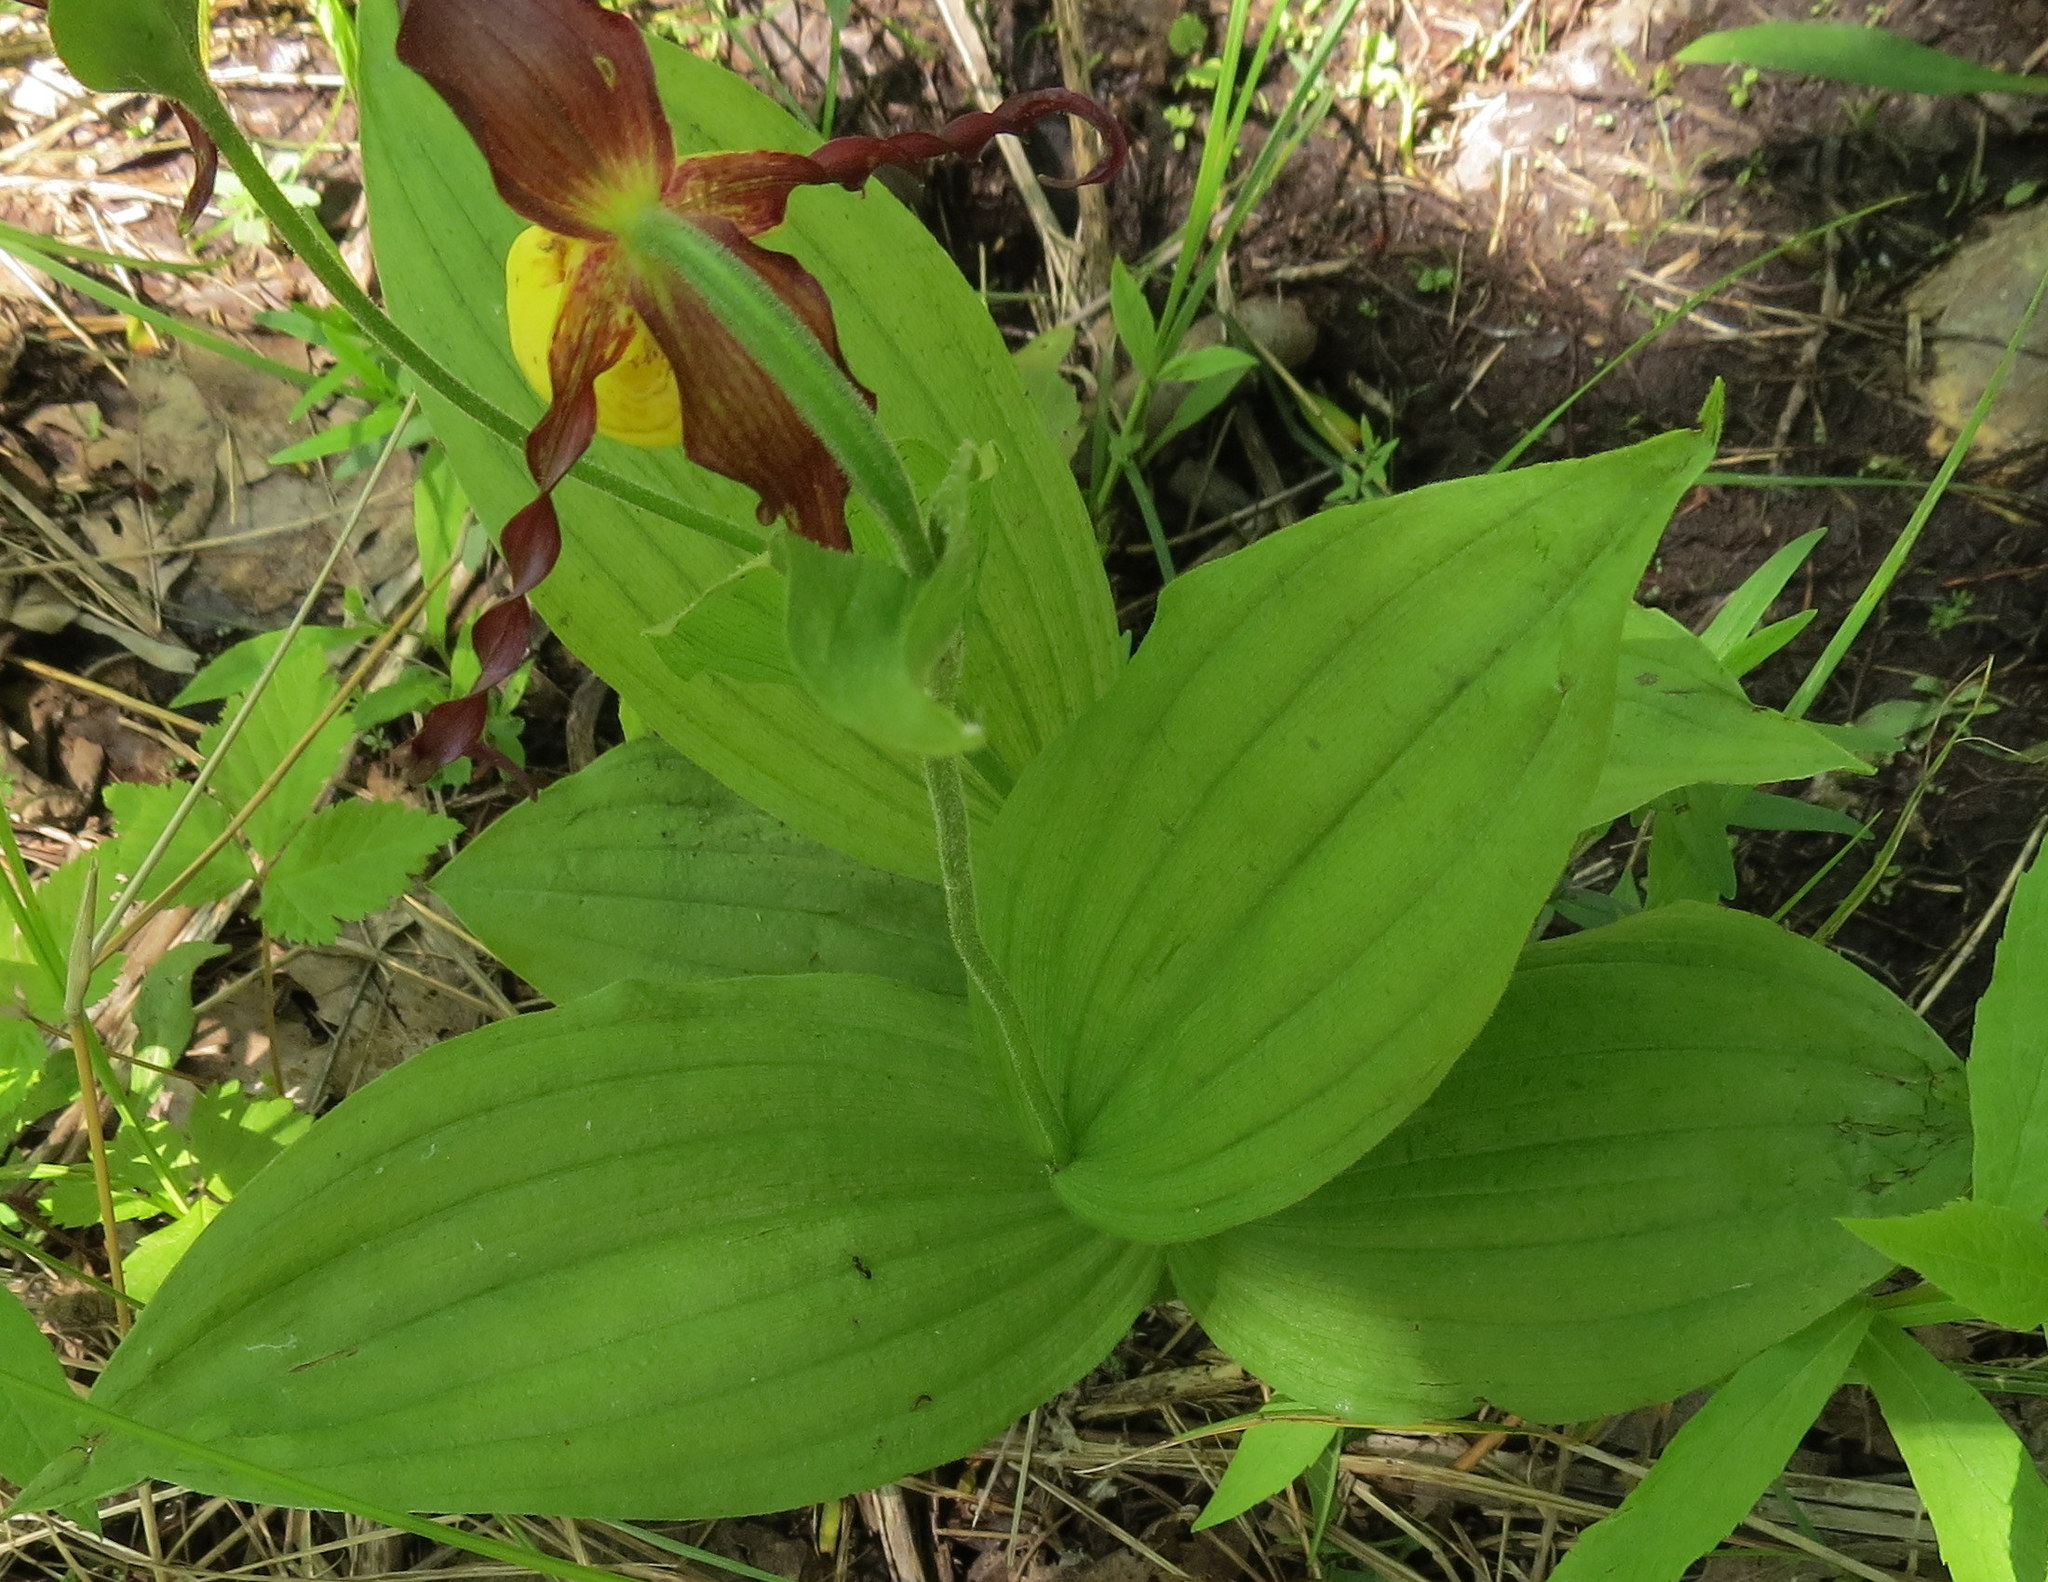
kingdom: Plantae
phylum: Tracheophyta
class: Liliopsida
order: Asparagales
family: Orchidaceae
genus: Cypripedium
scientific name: Cypripedium parviflorum
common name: American yellow lady's-slipper
